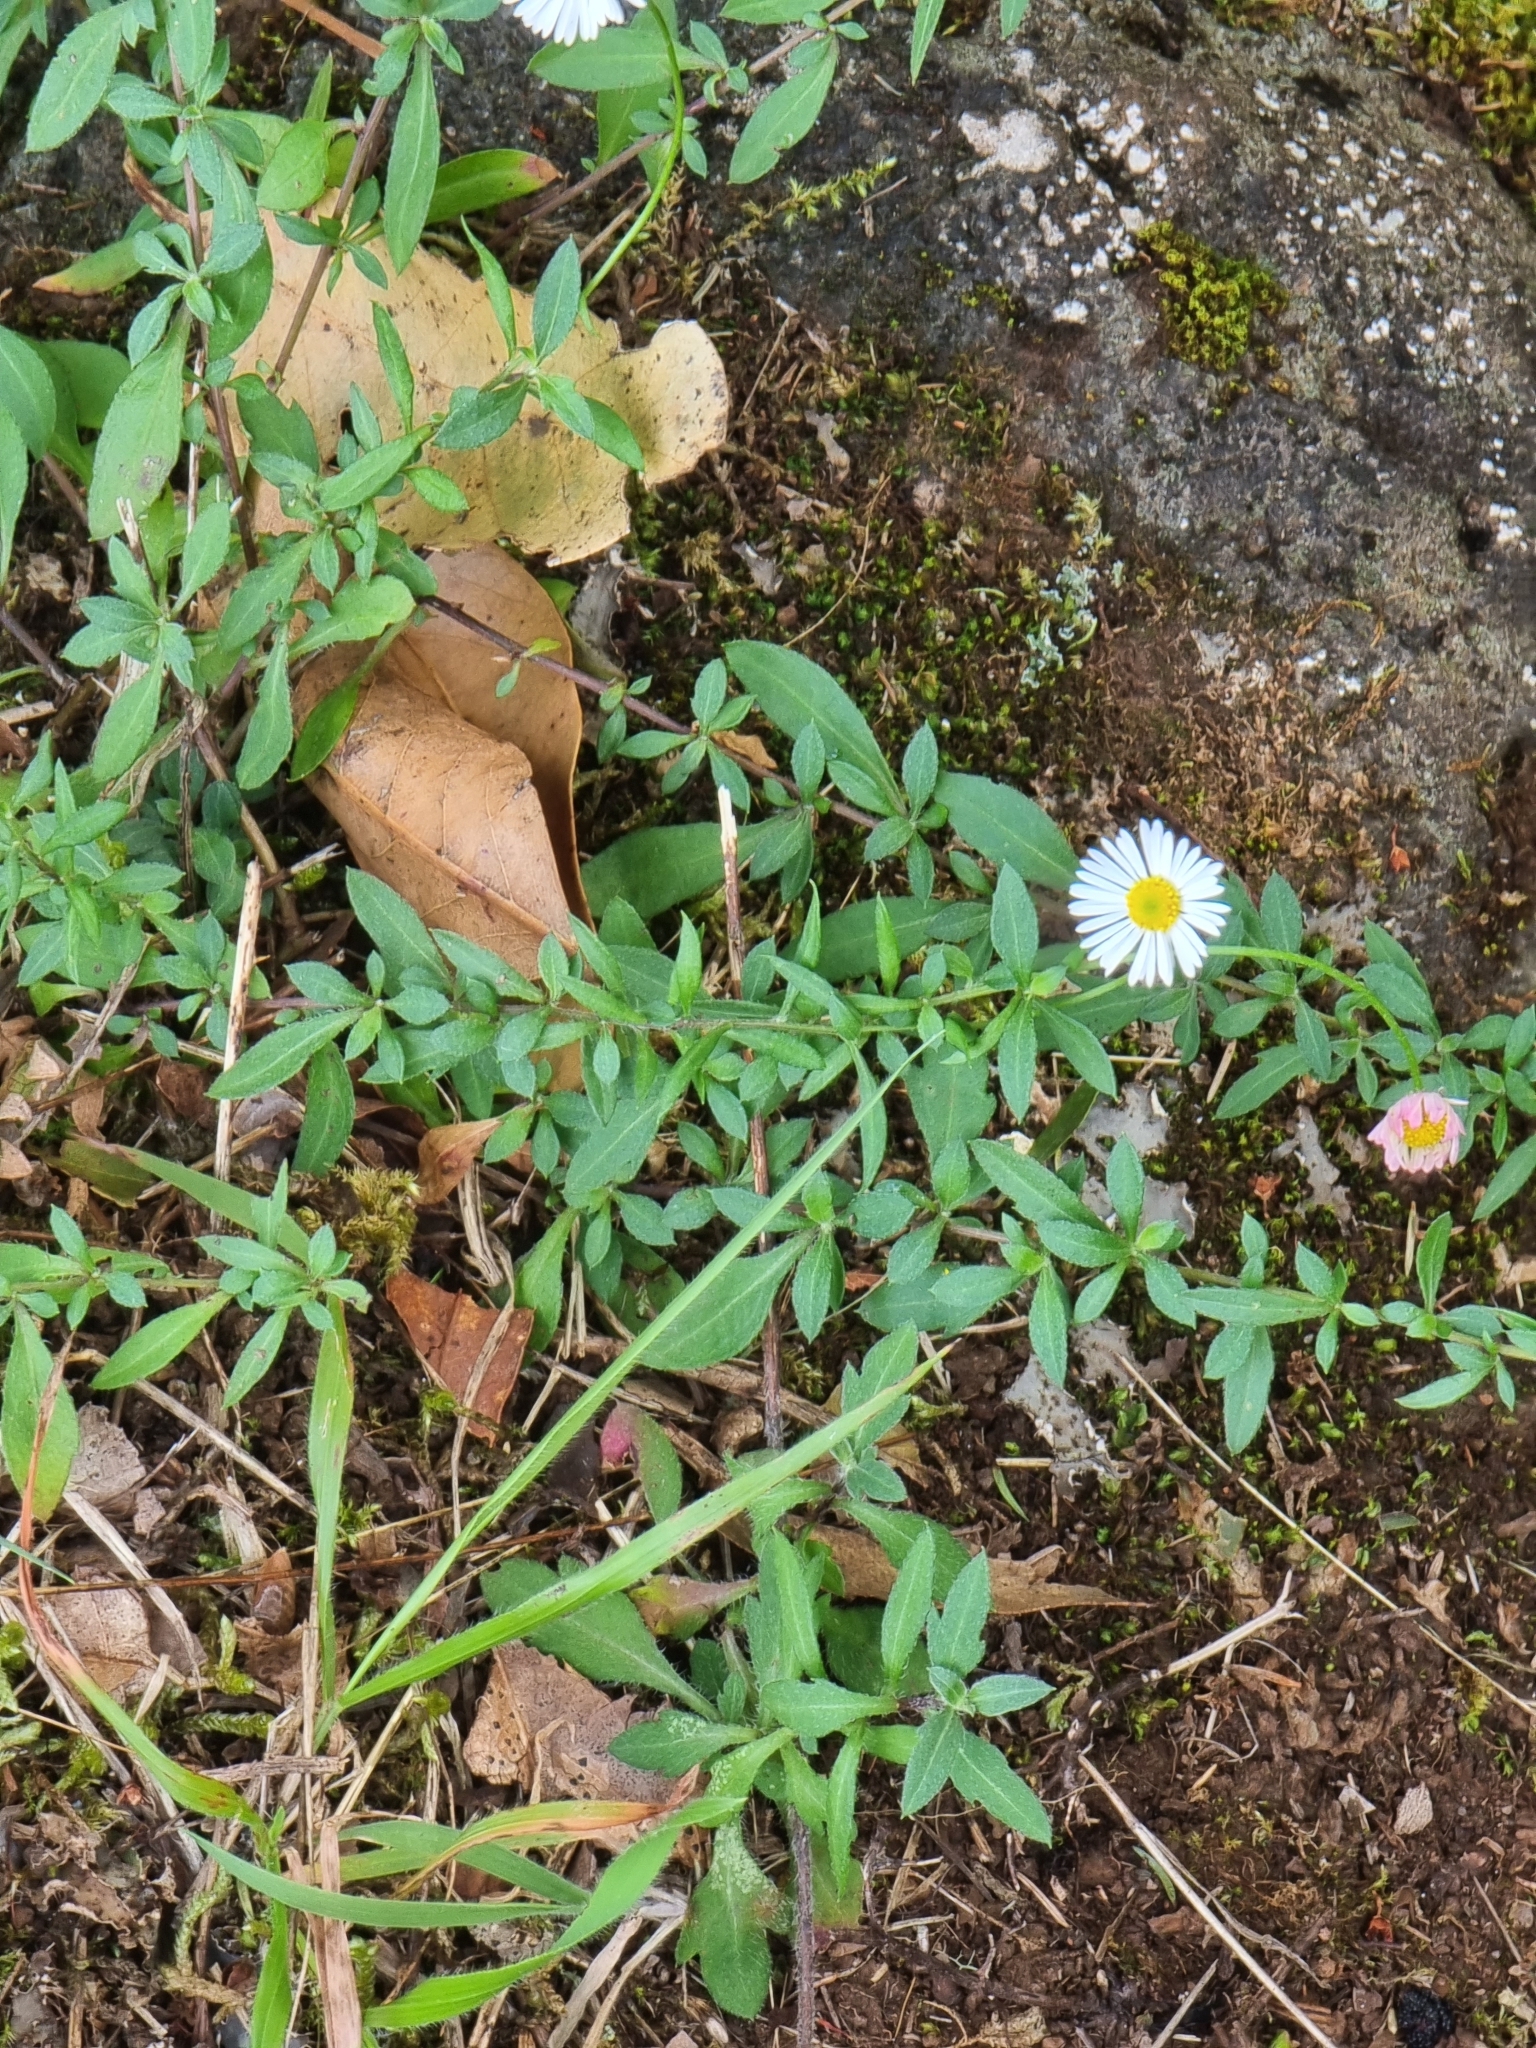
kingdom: Plantae
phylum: Tracheophyta
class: Magnoliopsida
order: Asterales
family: Asteraceae
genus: Erigeron
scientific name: Erigeron karvinskianus
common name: Mexican fleabane
